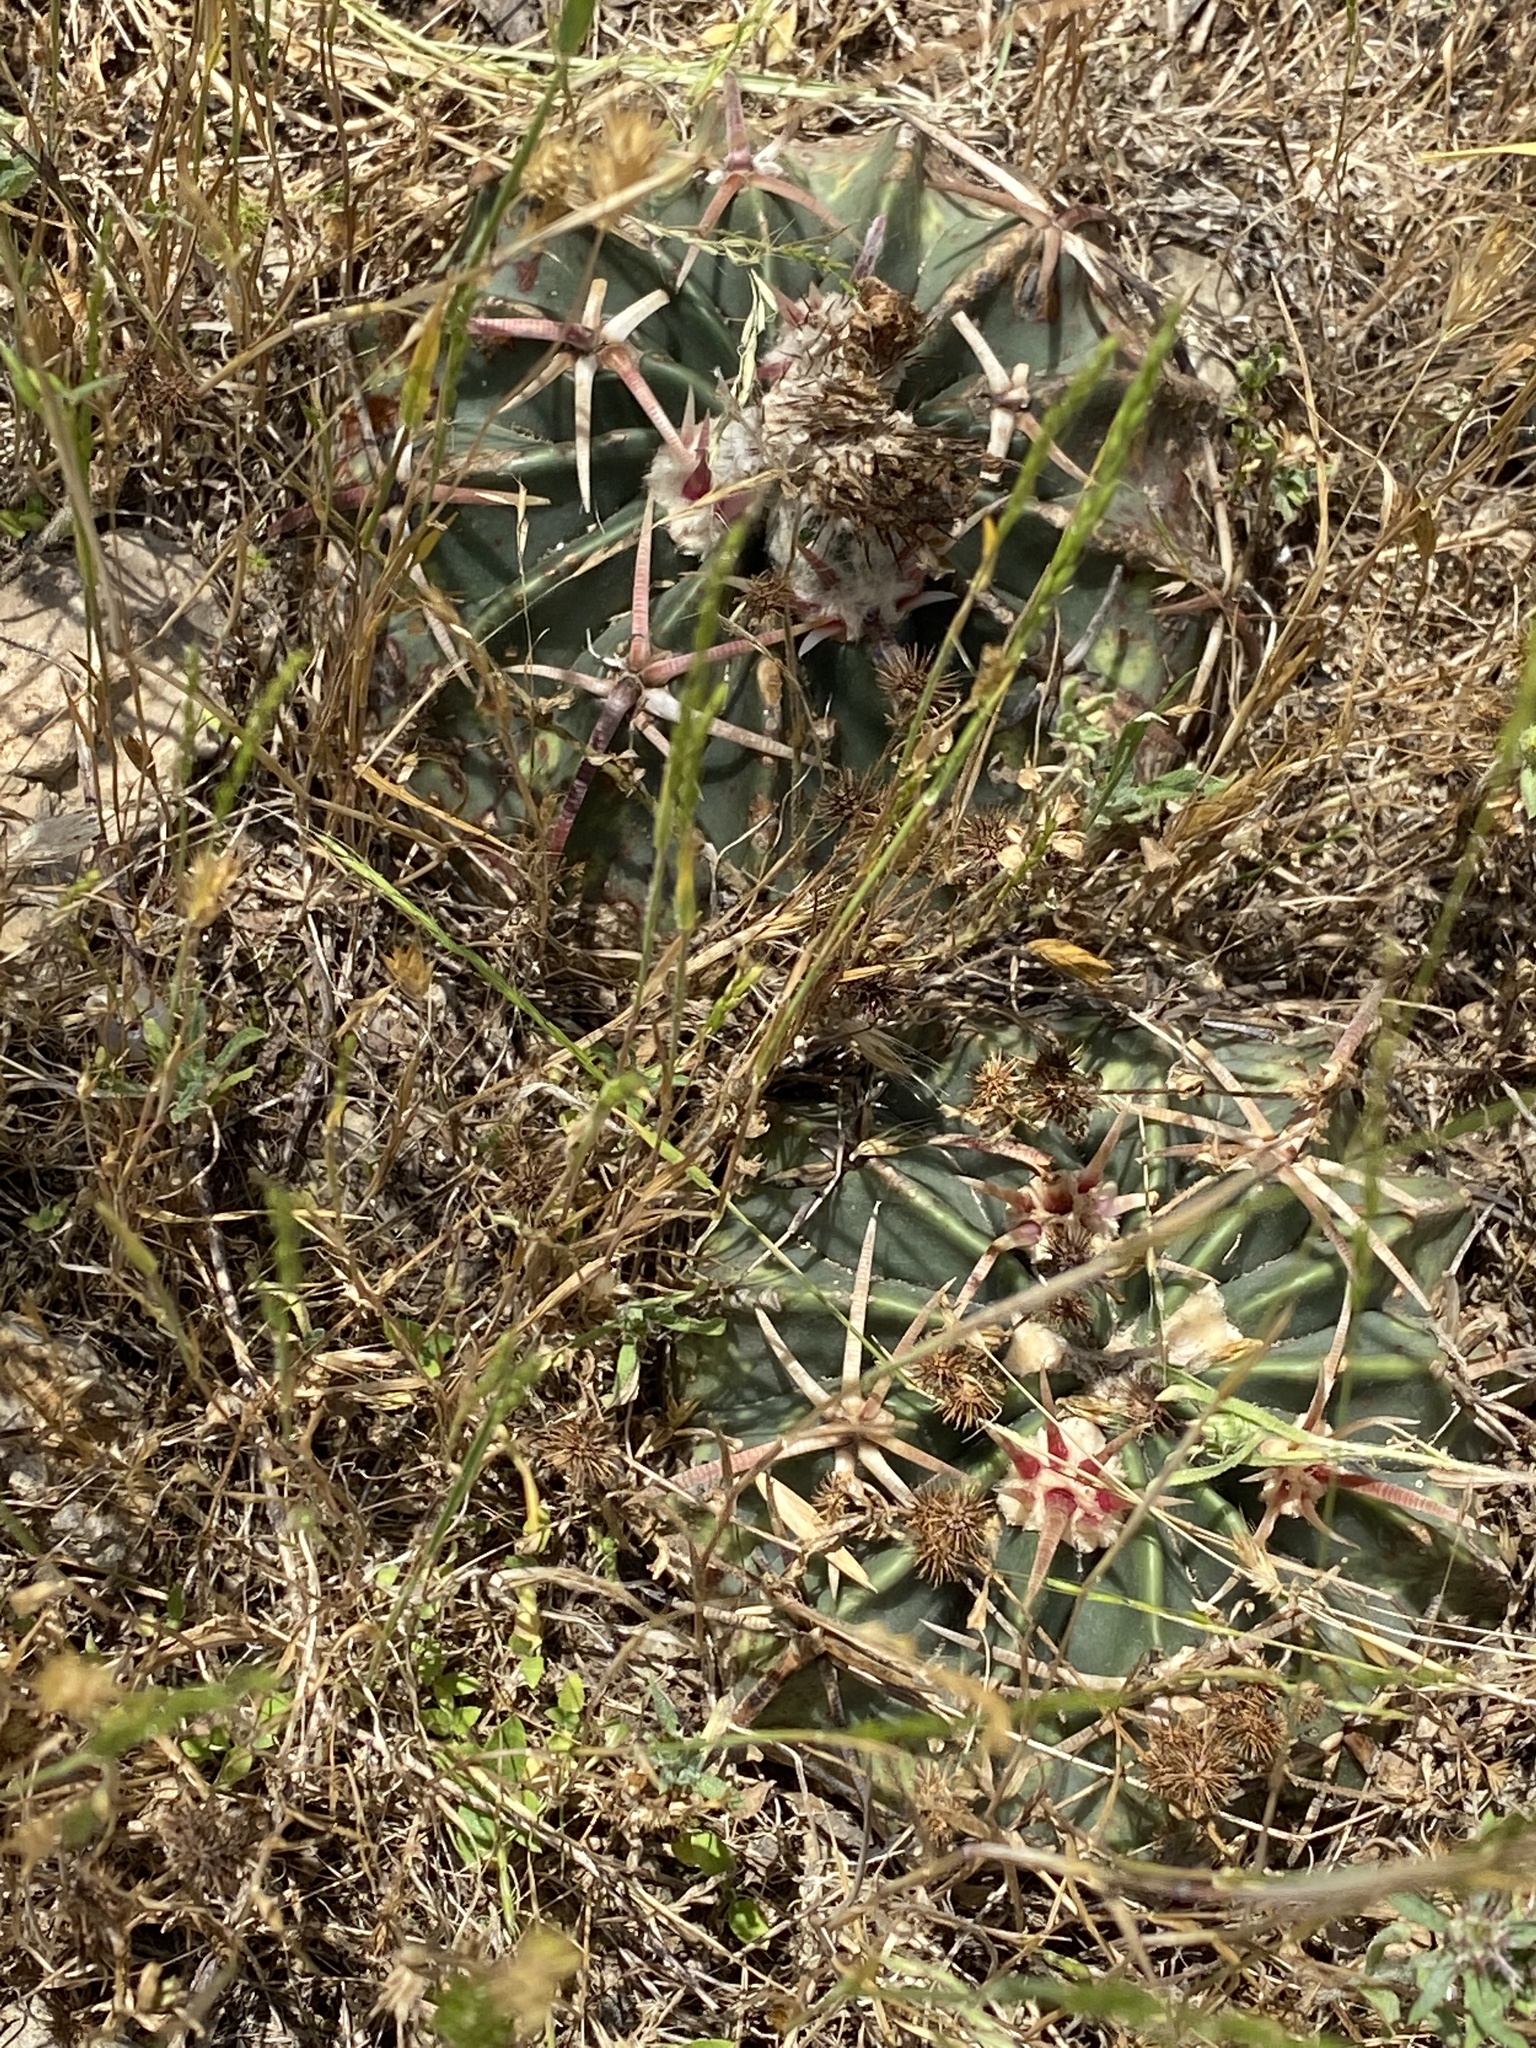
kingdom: Plantae
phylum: Tracheophyta
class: Magnoliopsida
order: Caryophyllales
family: Cactaceae
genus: Echinocactus
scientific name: Echinocactus texensis
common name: Devil's pincushion
